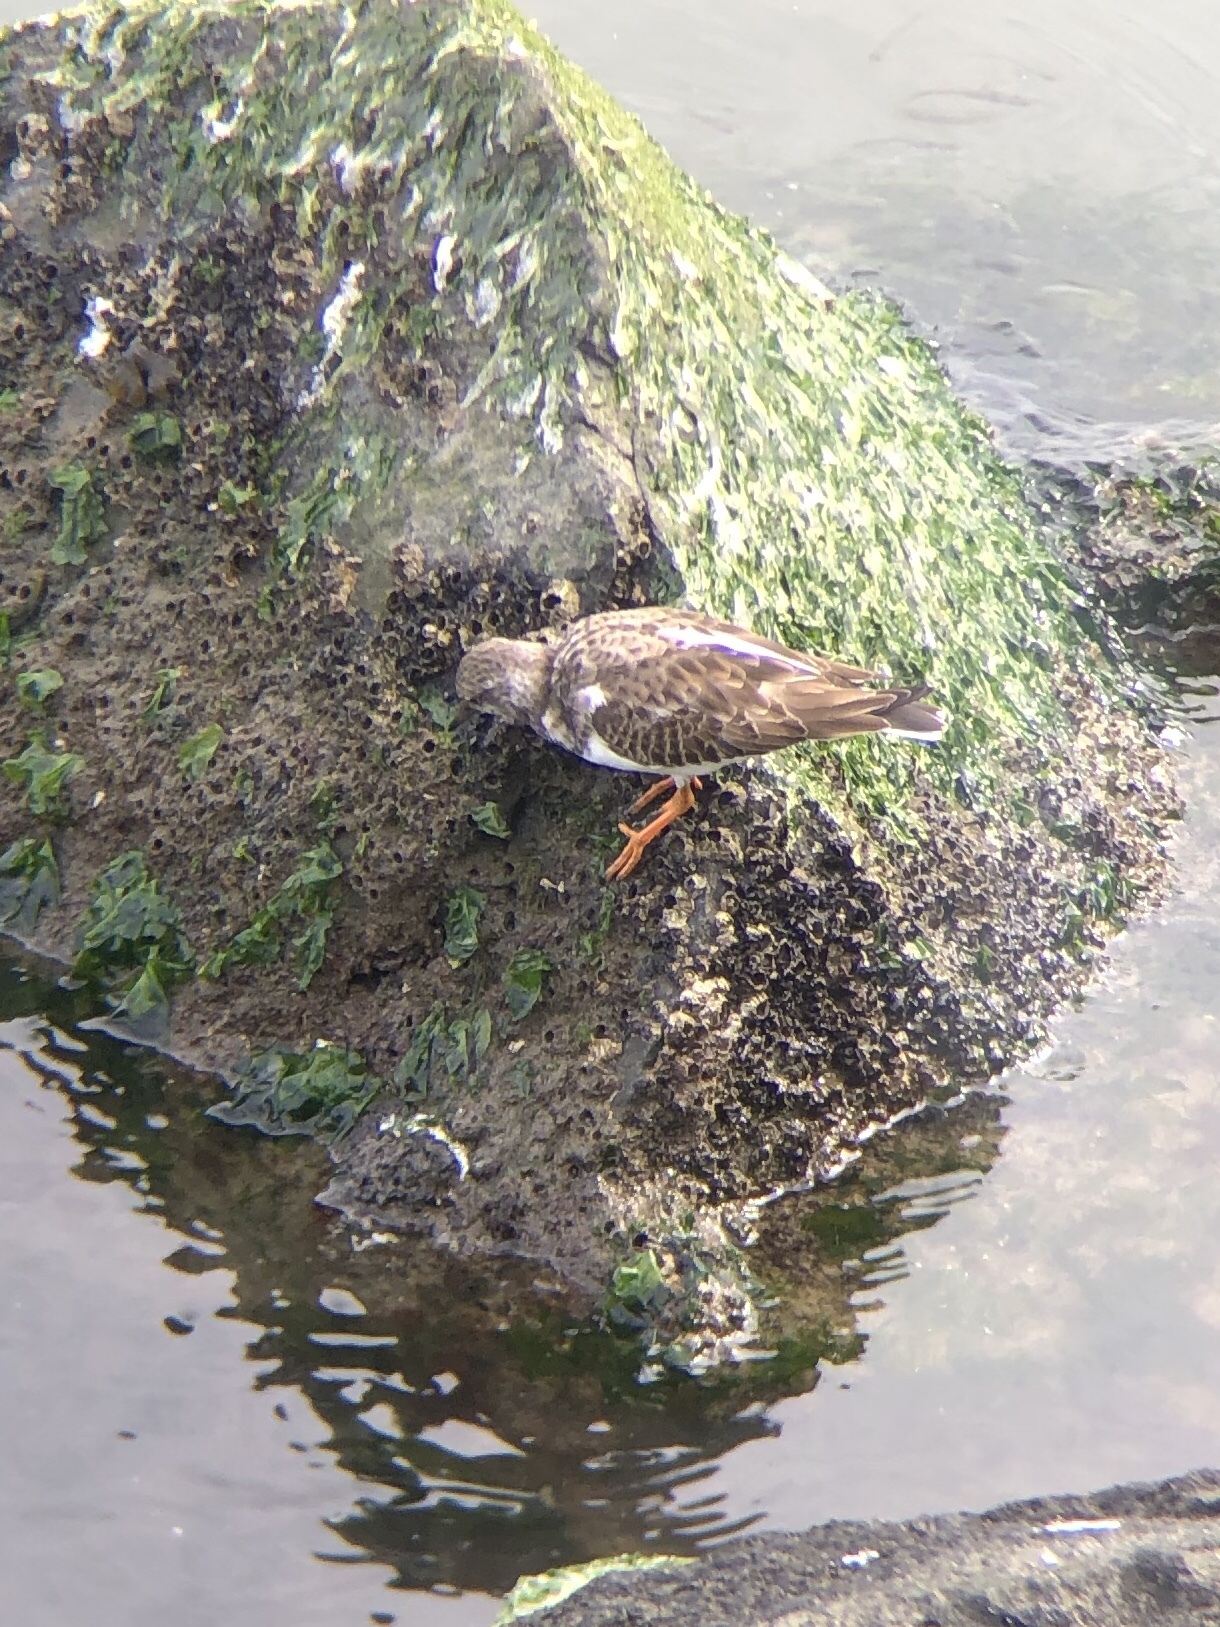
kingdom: Animalia
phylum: Chordata
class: Aves
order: Charadriiformes
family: Scolopacidae
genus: Arenaria
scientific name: Arenaria interpres
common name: Ruddy turnstone
